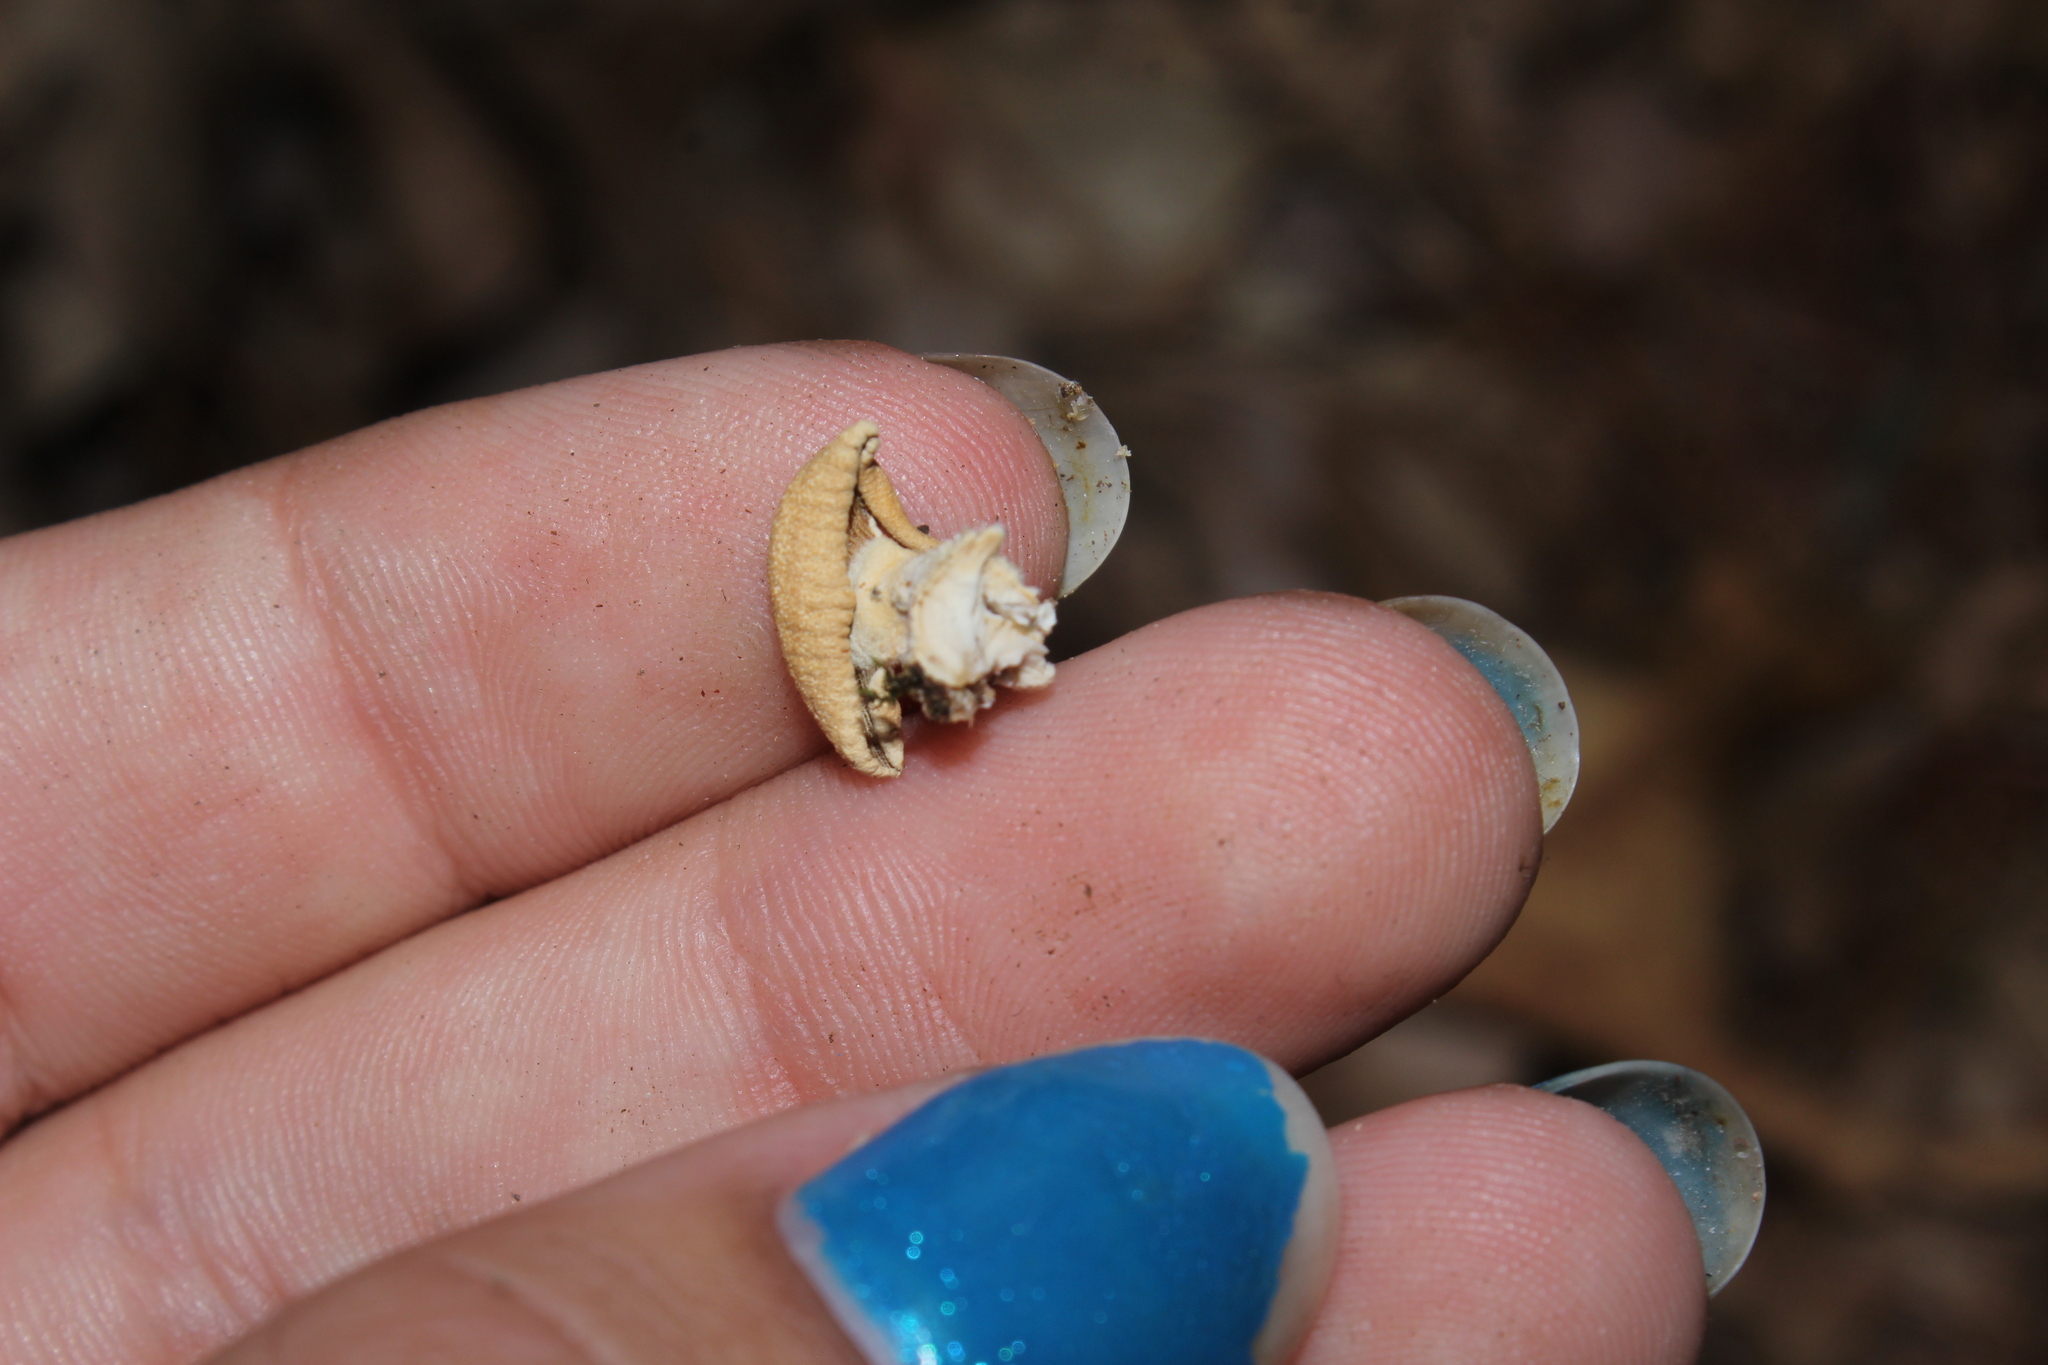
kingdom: Fungi
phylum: Basidiomycota
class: Agaricomycetes
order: Agaricales
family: Mycenaceae
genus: Panellus
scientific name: Panellus stipticus
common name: Bitter oysterling
